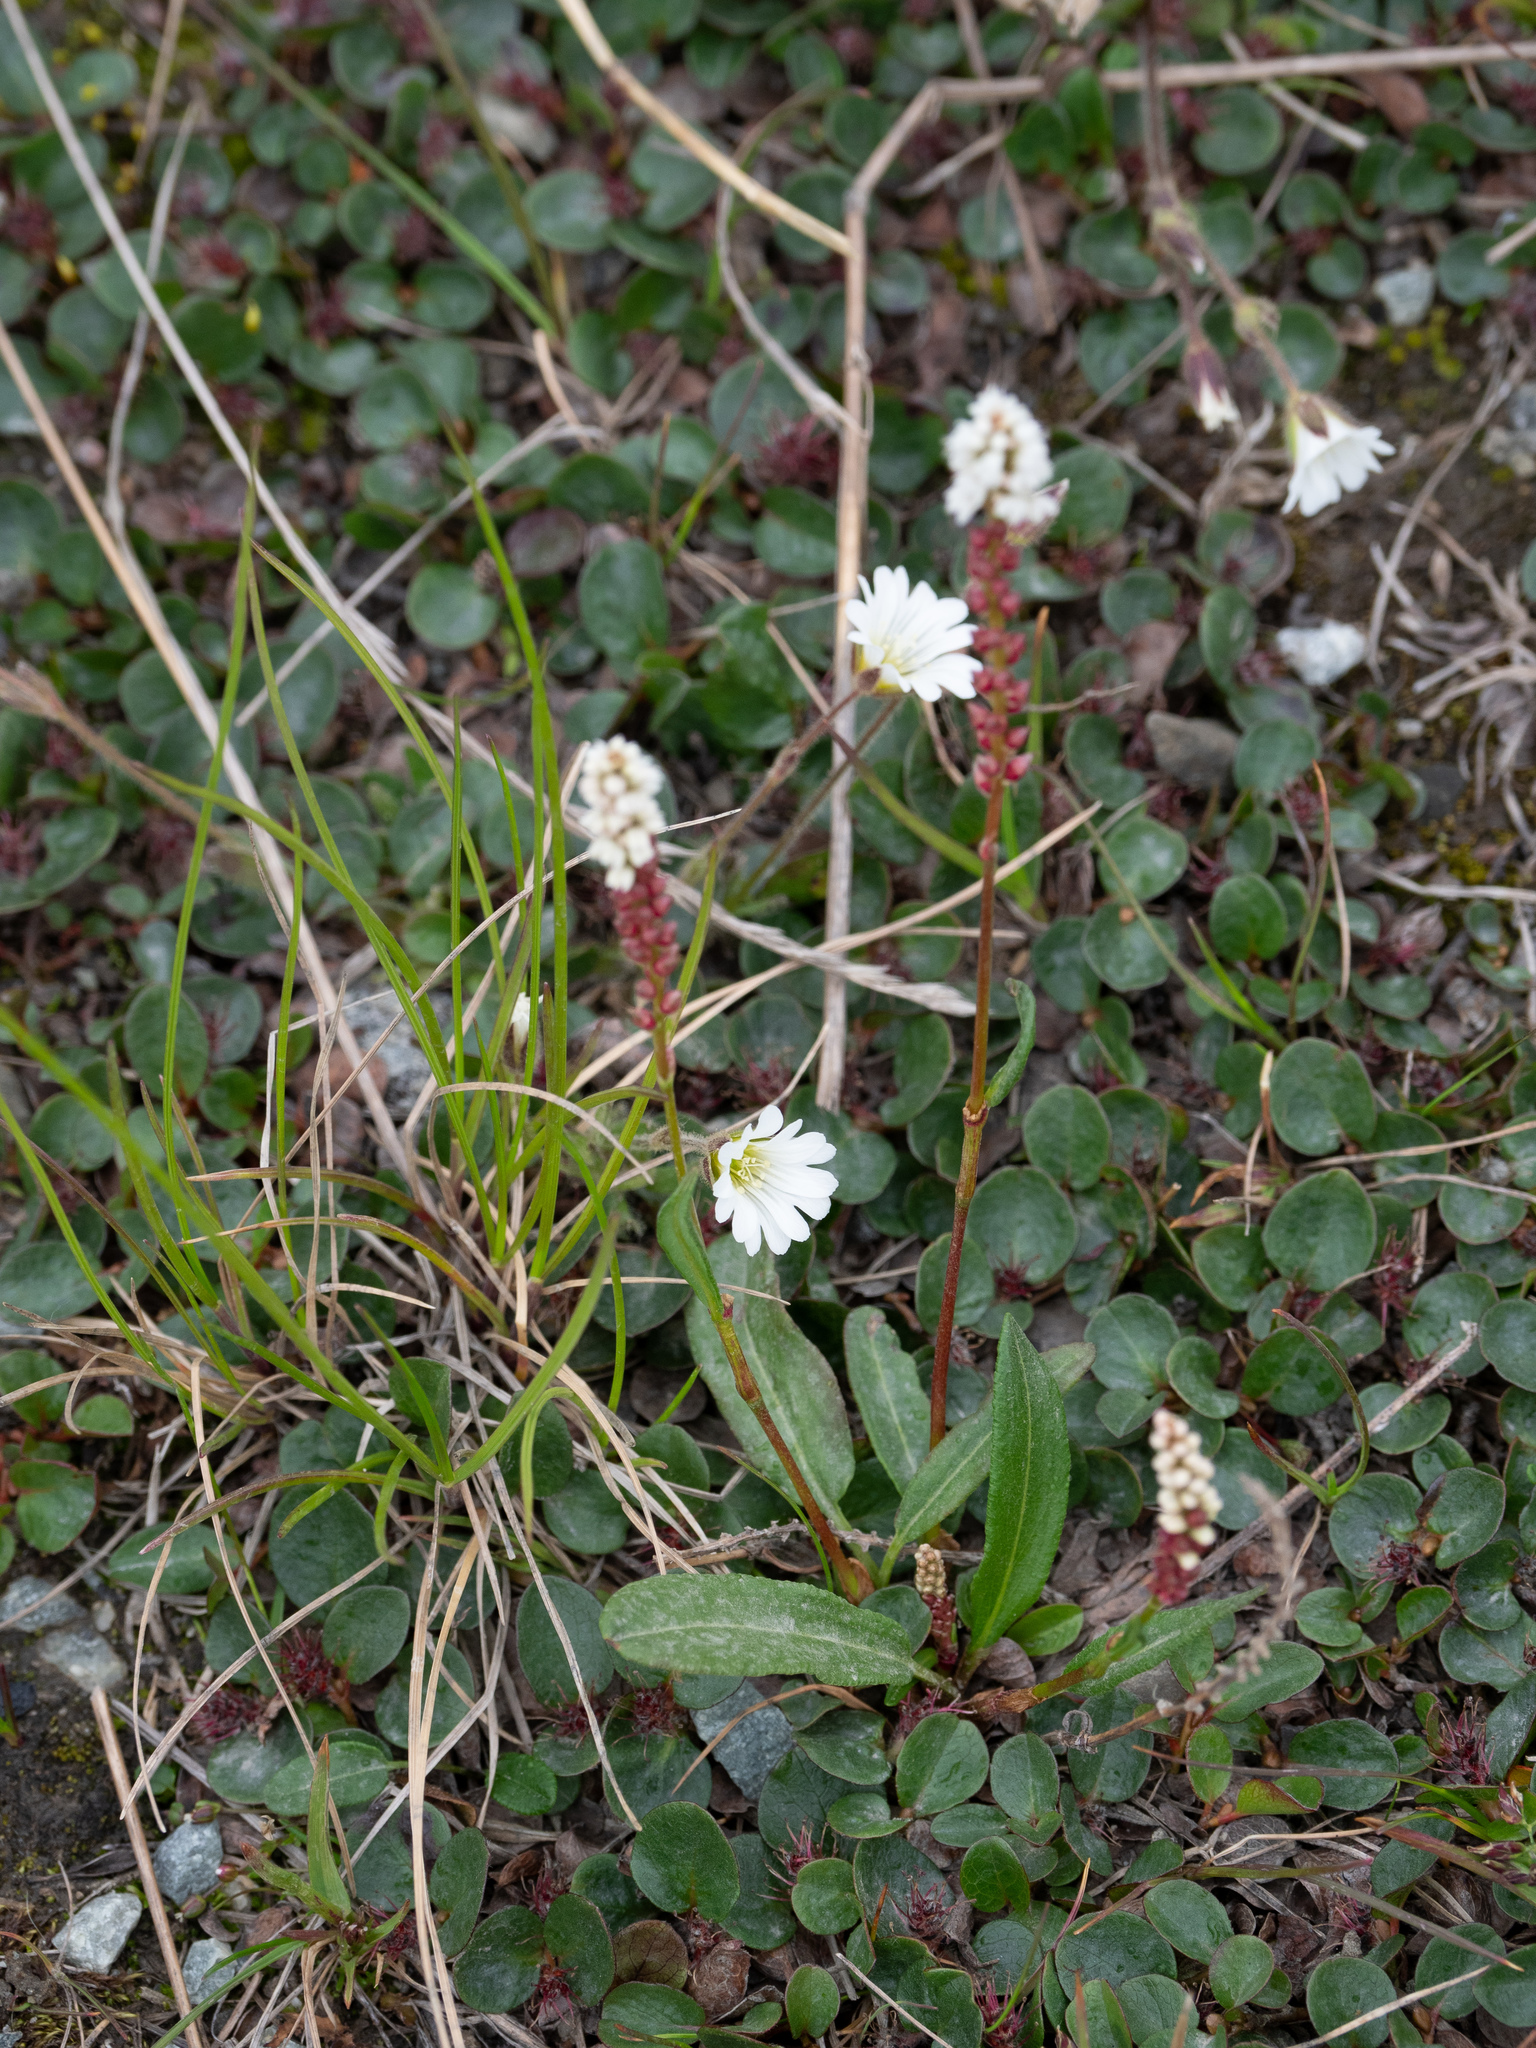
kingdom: Plantae
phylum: Tracheophyta
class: Magnoliopsida
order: Caryophyllales
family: Polygonaceae
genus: Bistorta
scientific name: Bistorta vivipara
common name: Alpine bistort
